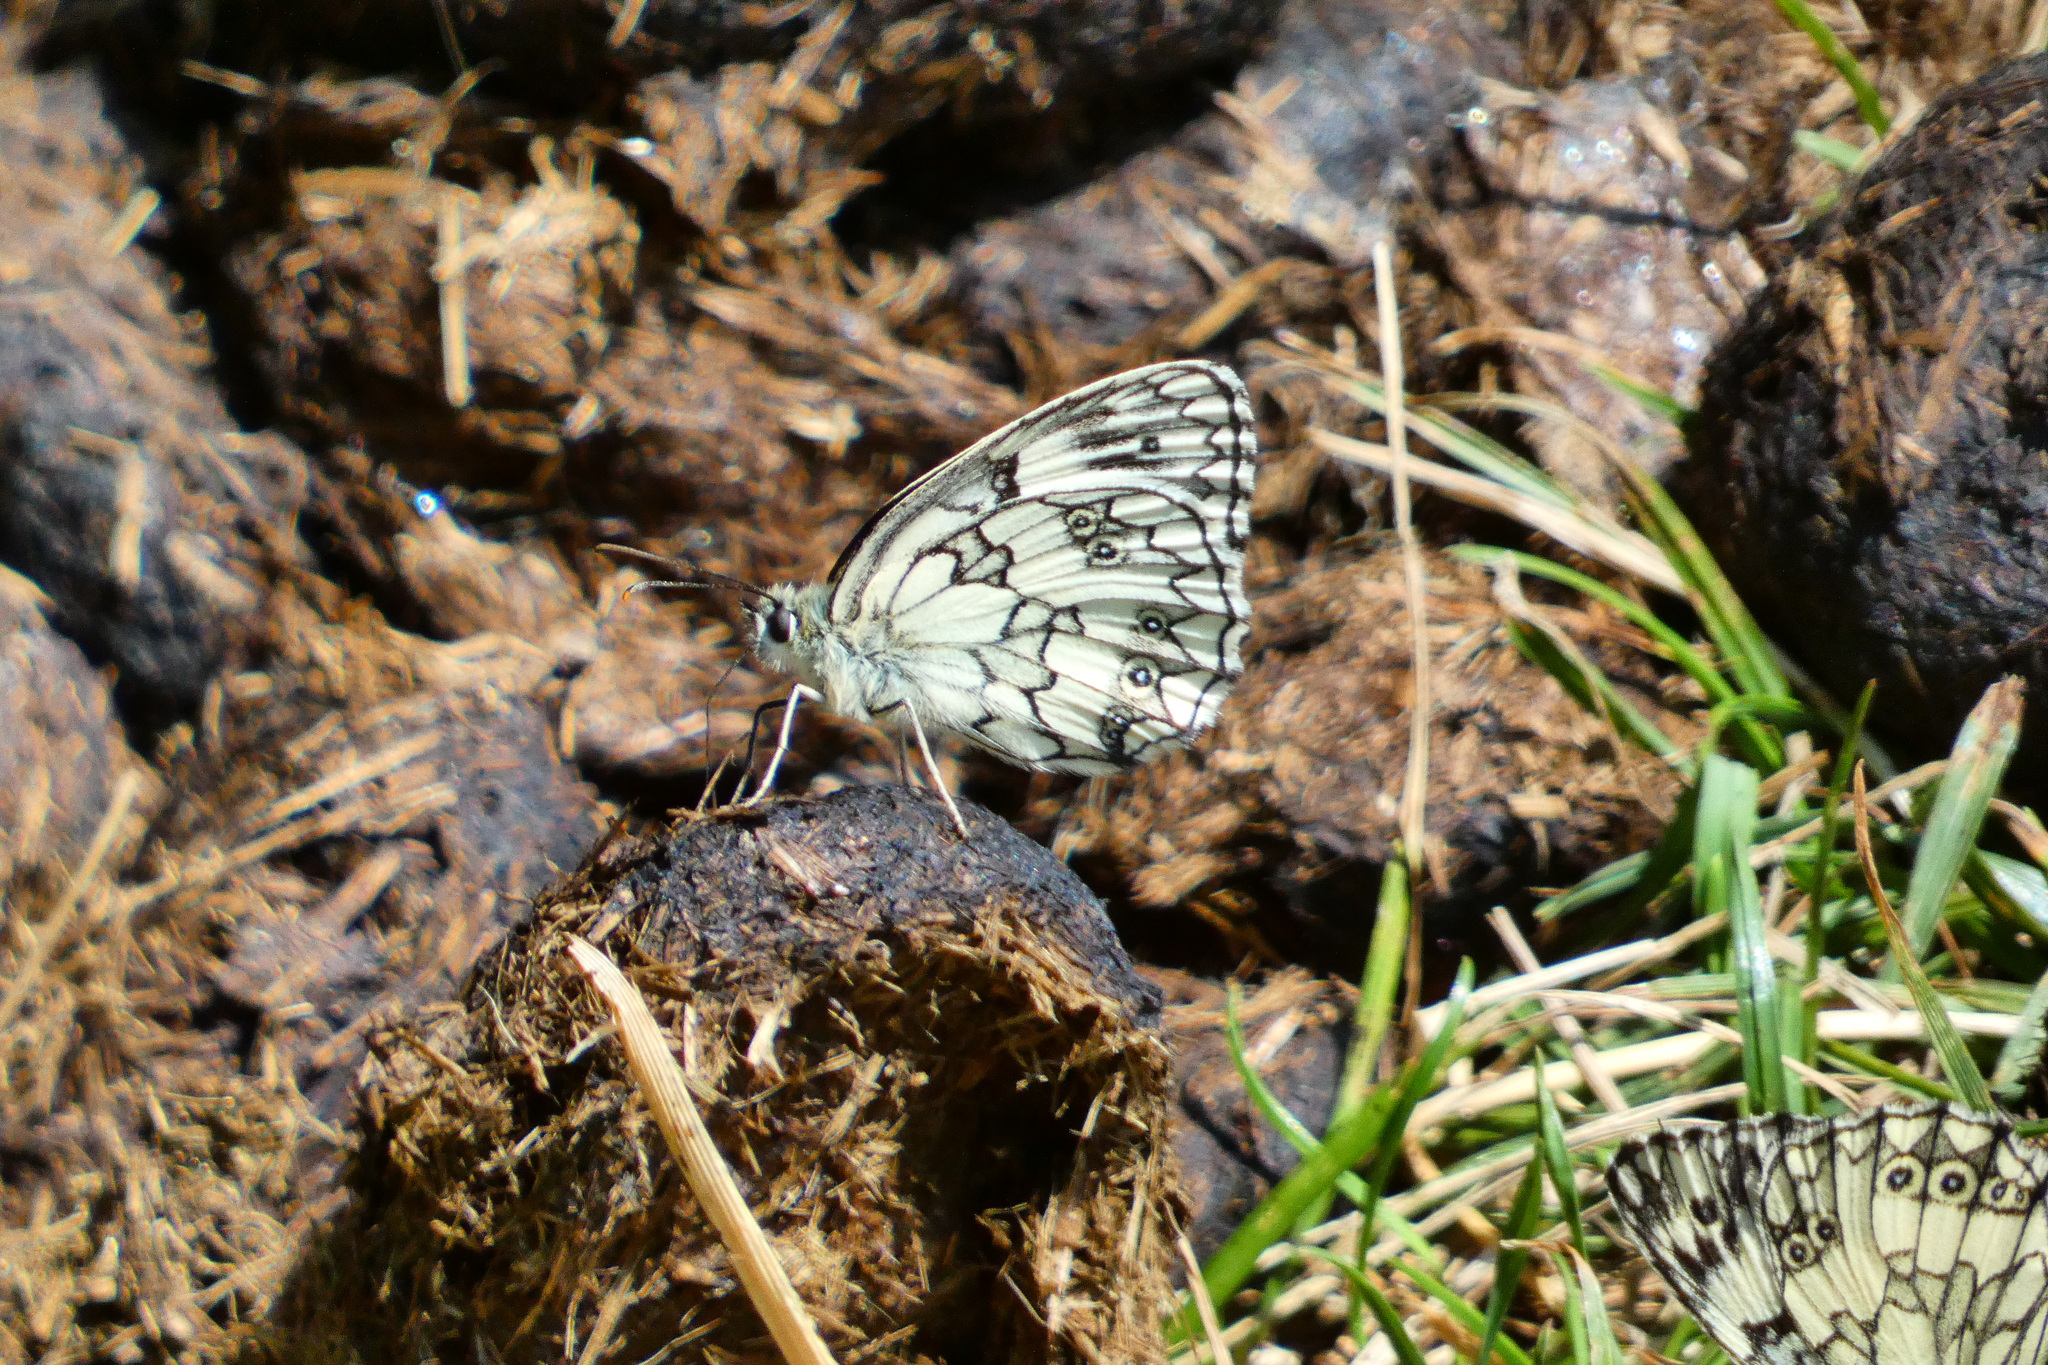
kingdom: Animalia
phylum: Arthropoda
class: Insecta
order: Lepidoptera
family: Nymphalidae
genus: Melanargia
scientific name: Melanargia galathea
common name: Marbled white
